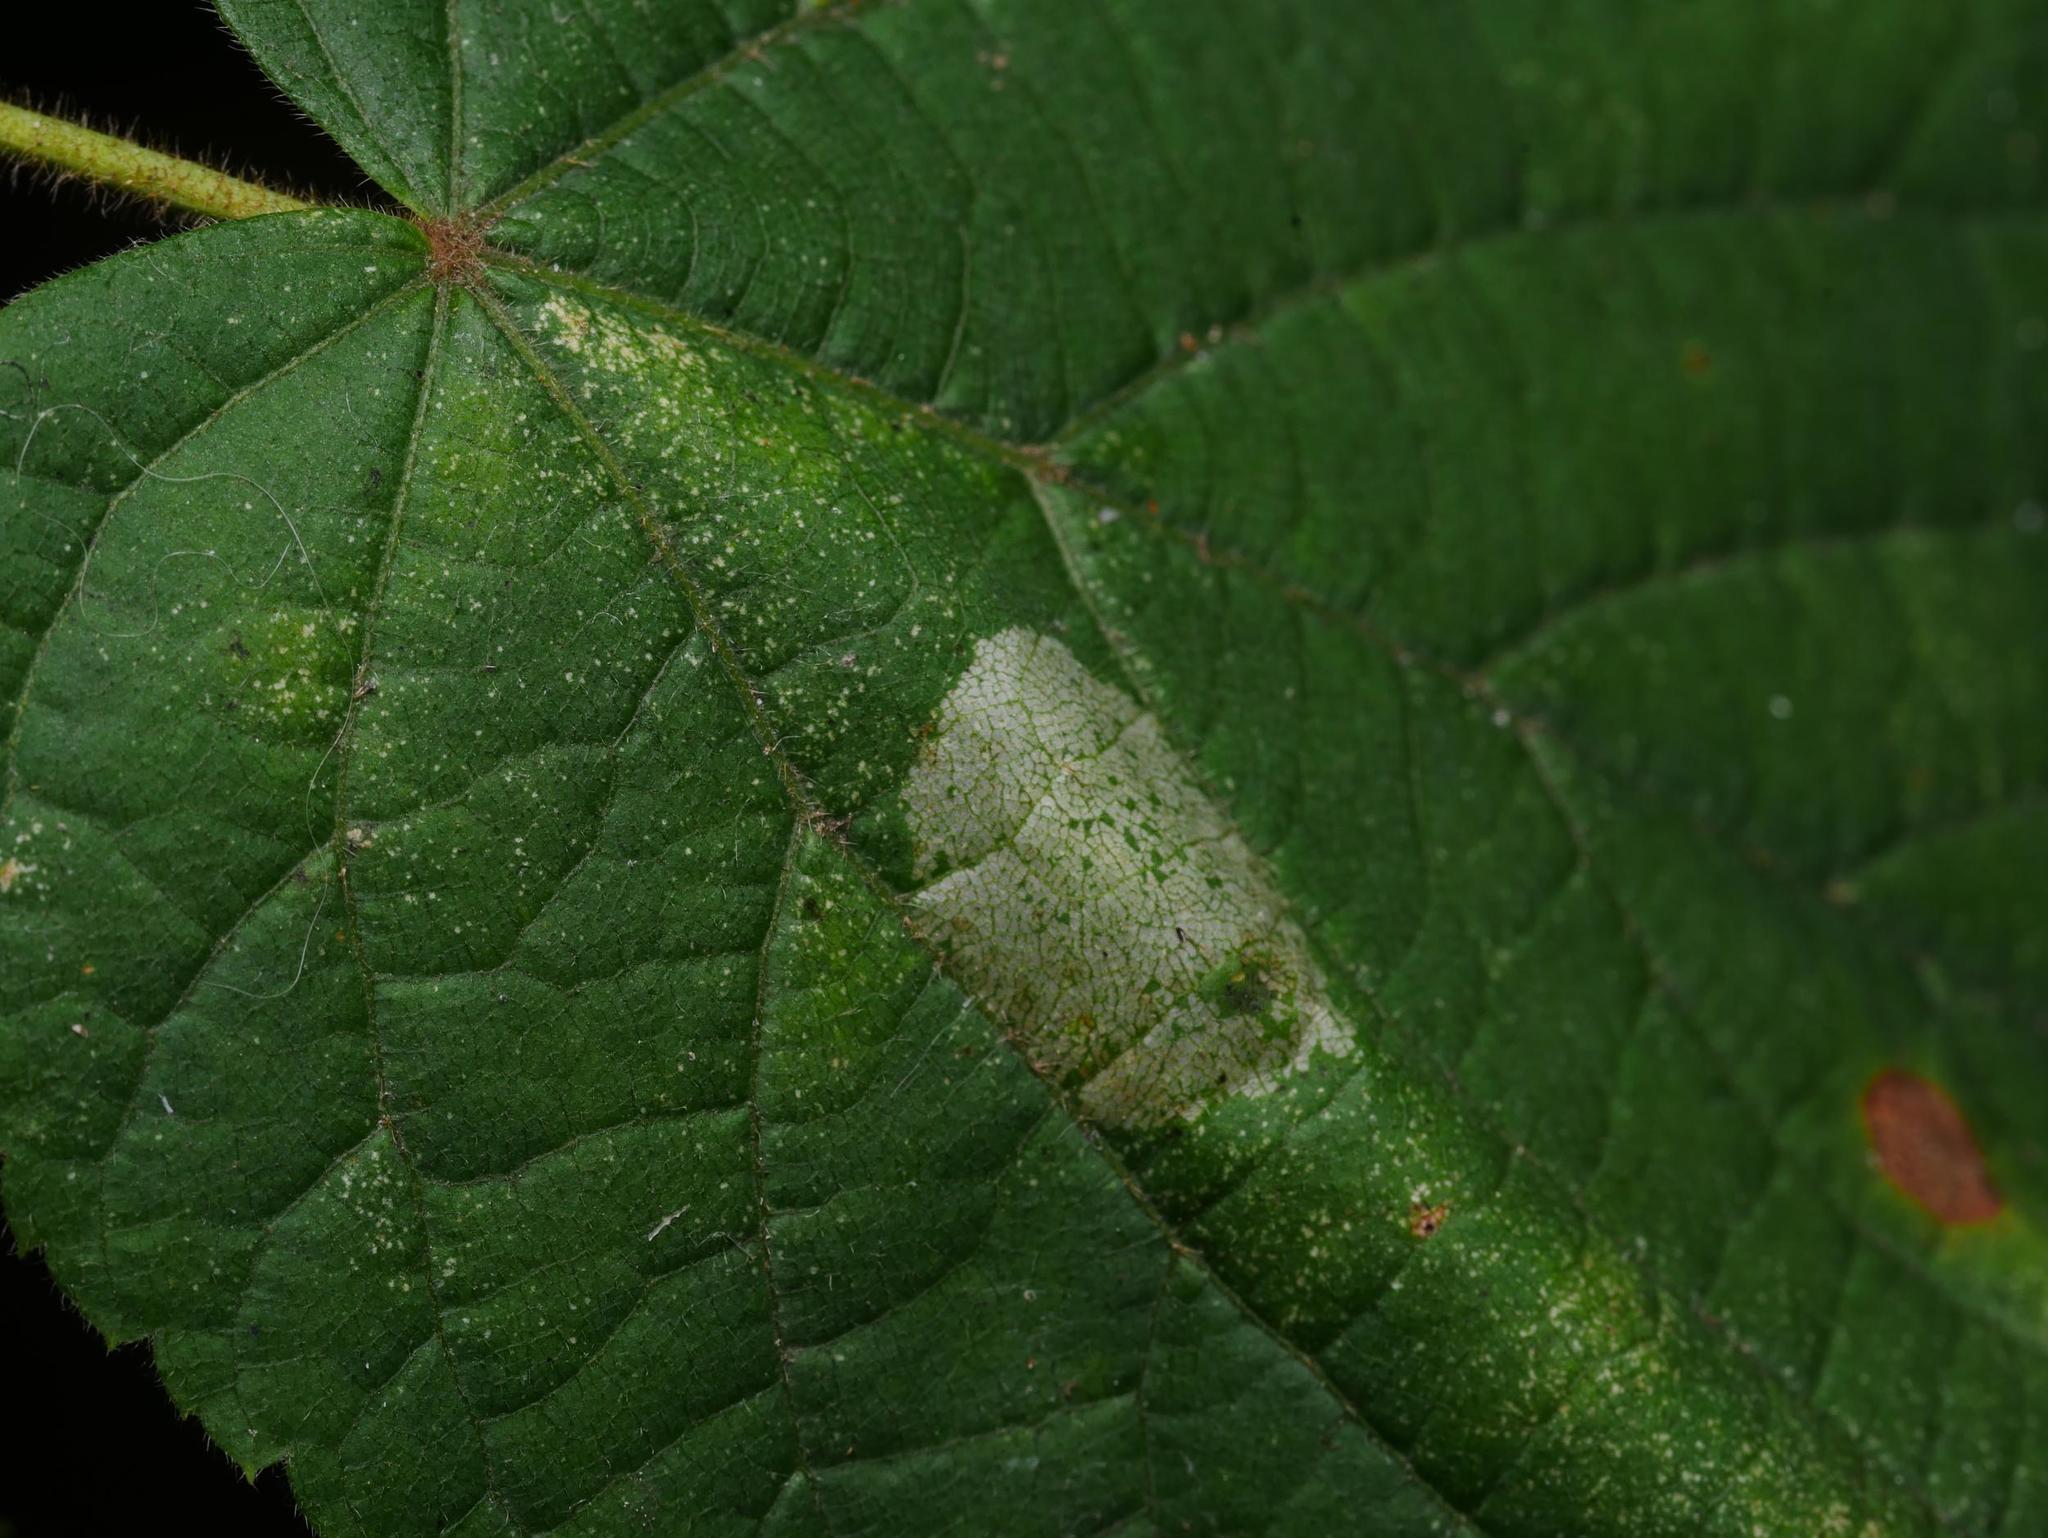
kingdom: Animalia
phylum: Arthropoda
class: Insecta
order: Lepidoptera
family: Gracillariidae
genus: Phyllonorycter
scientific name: Phyllonorycter issikii
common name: Linden midget
